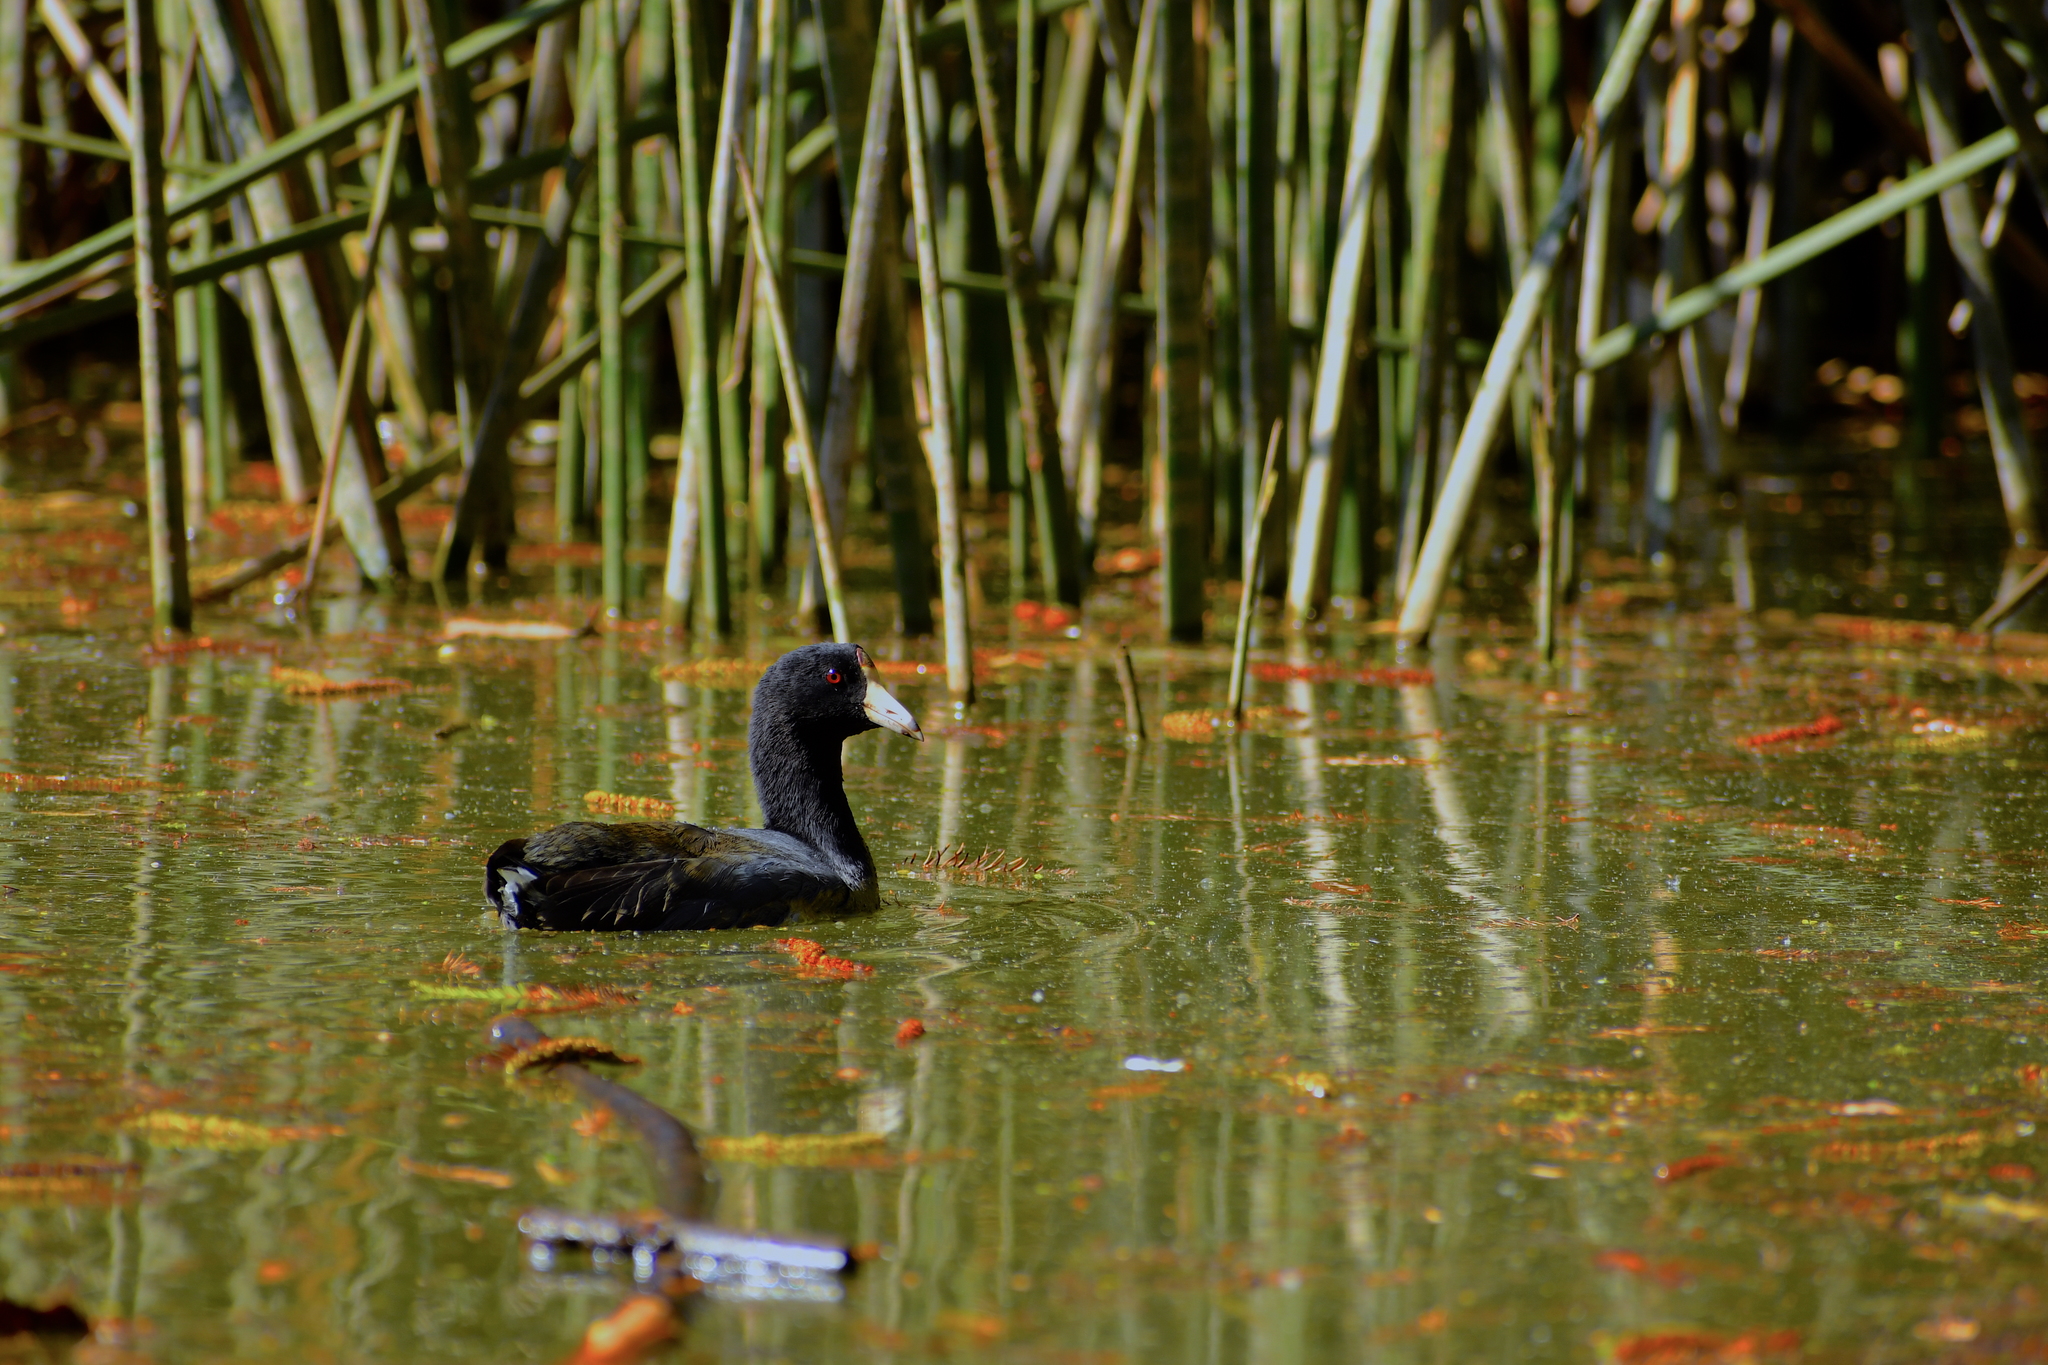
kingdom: Animalia
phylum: Chordata
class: Aves
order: Gruiformes
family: Rallidae
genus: Fulica
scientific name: Fulica americana
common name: American coot
